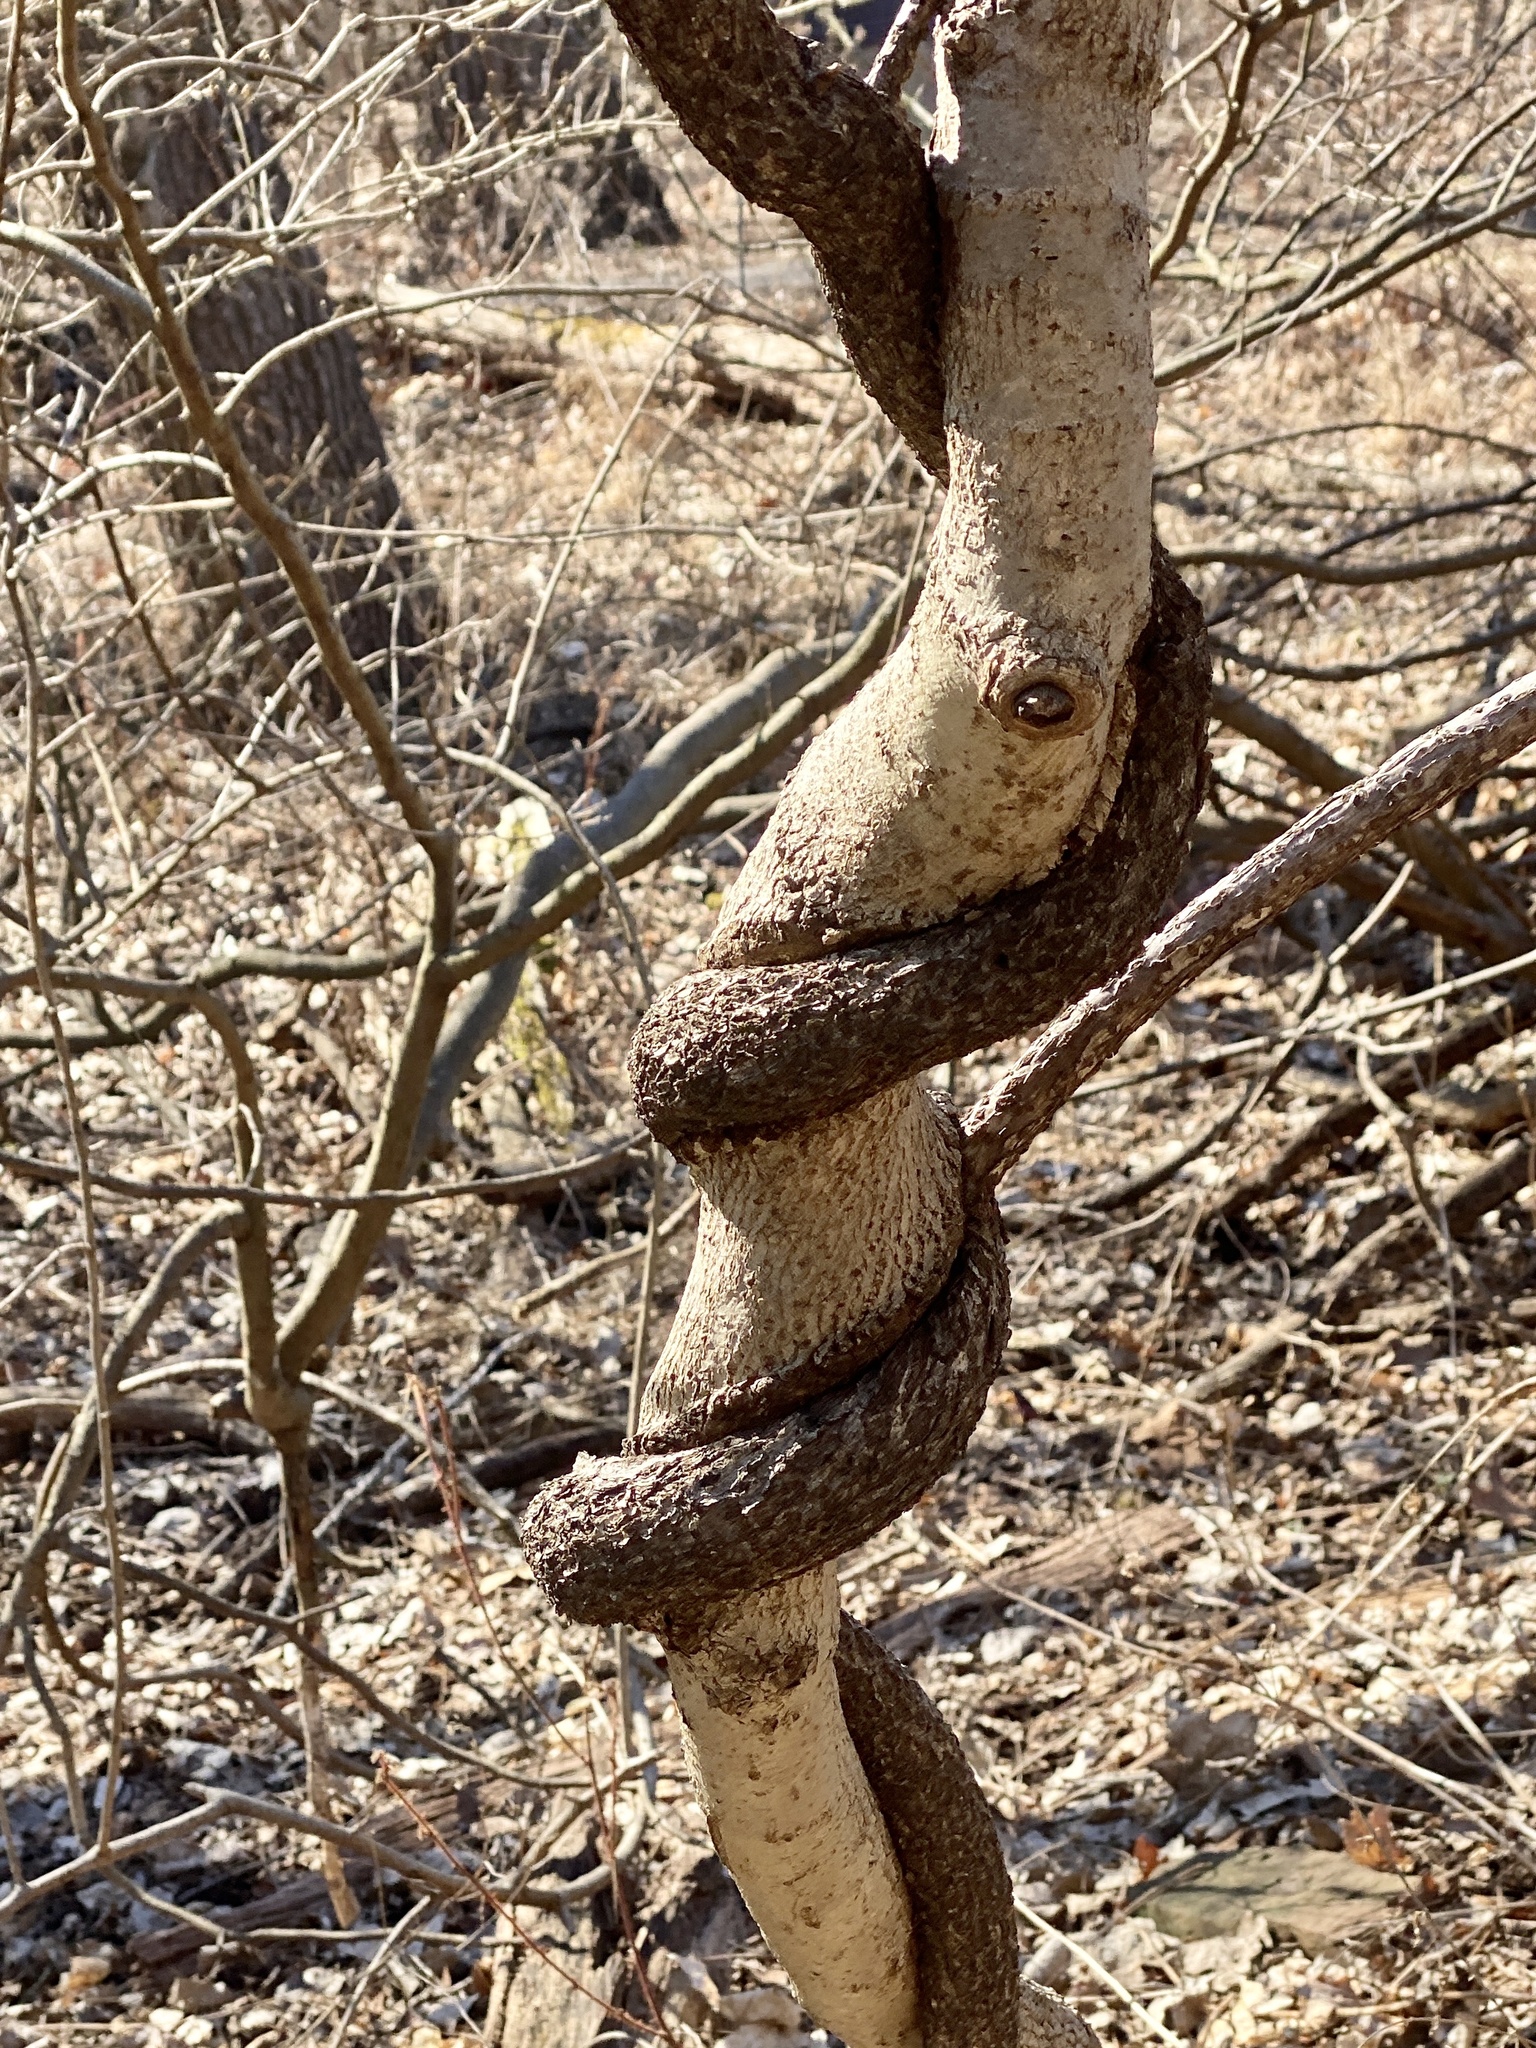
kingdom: Plantae
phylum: Tracheophyta
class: Magnoliopsida
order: Celastrales
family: Celastraceae
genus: Celastrus
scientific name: Celastrus orbiculatus
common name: Oriental bittersweet
